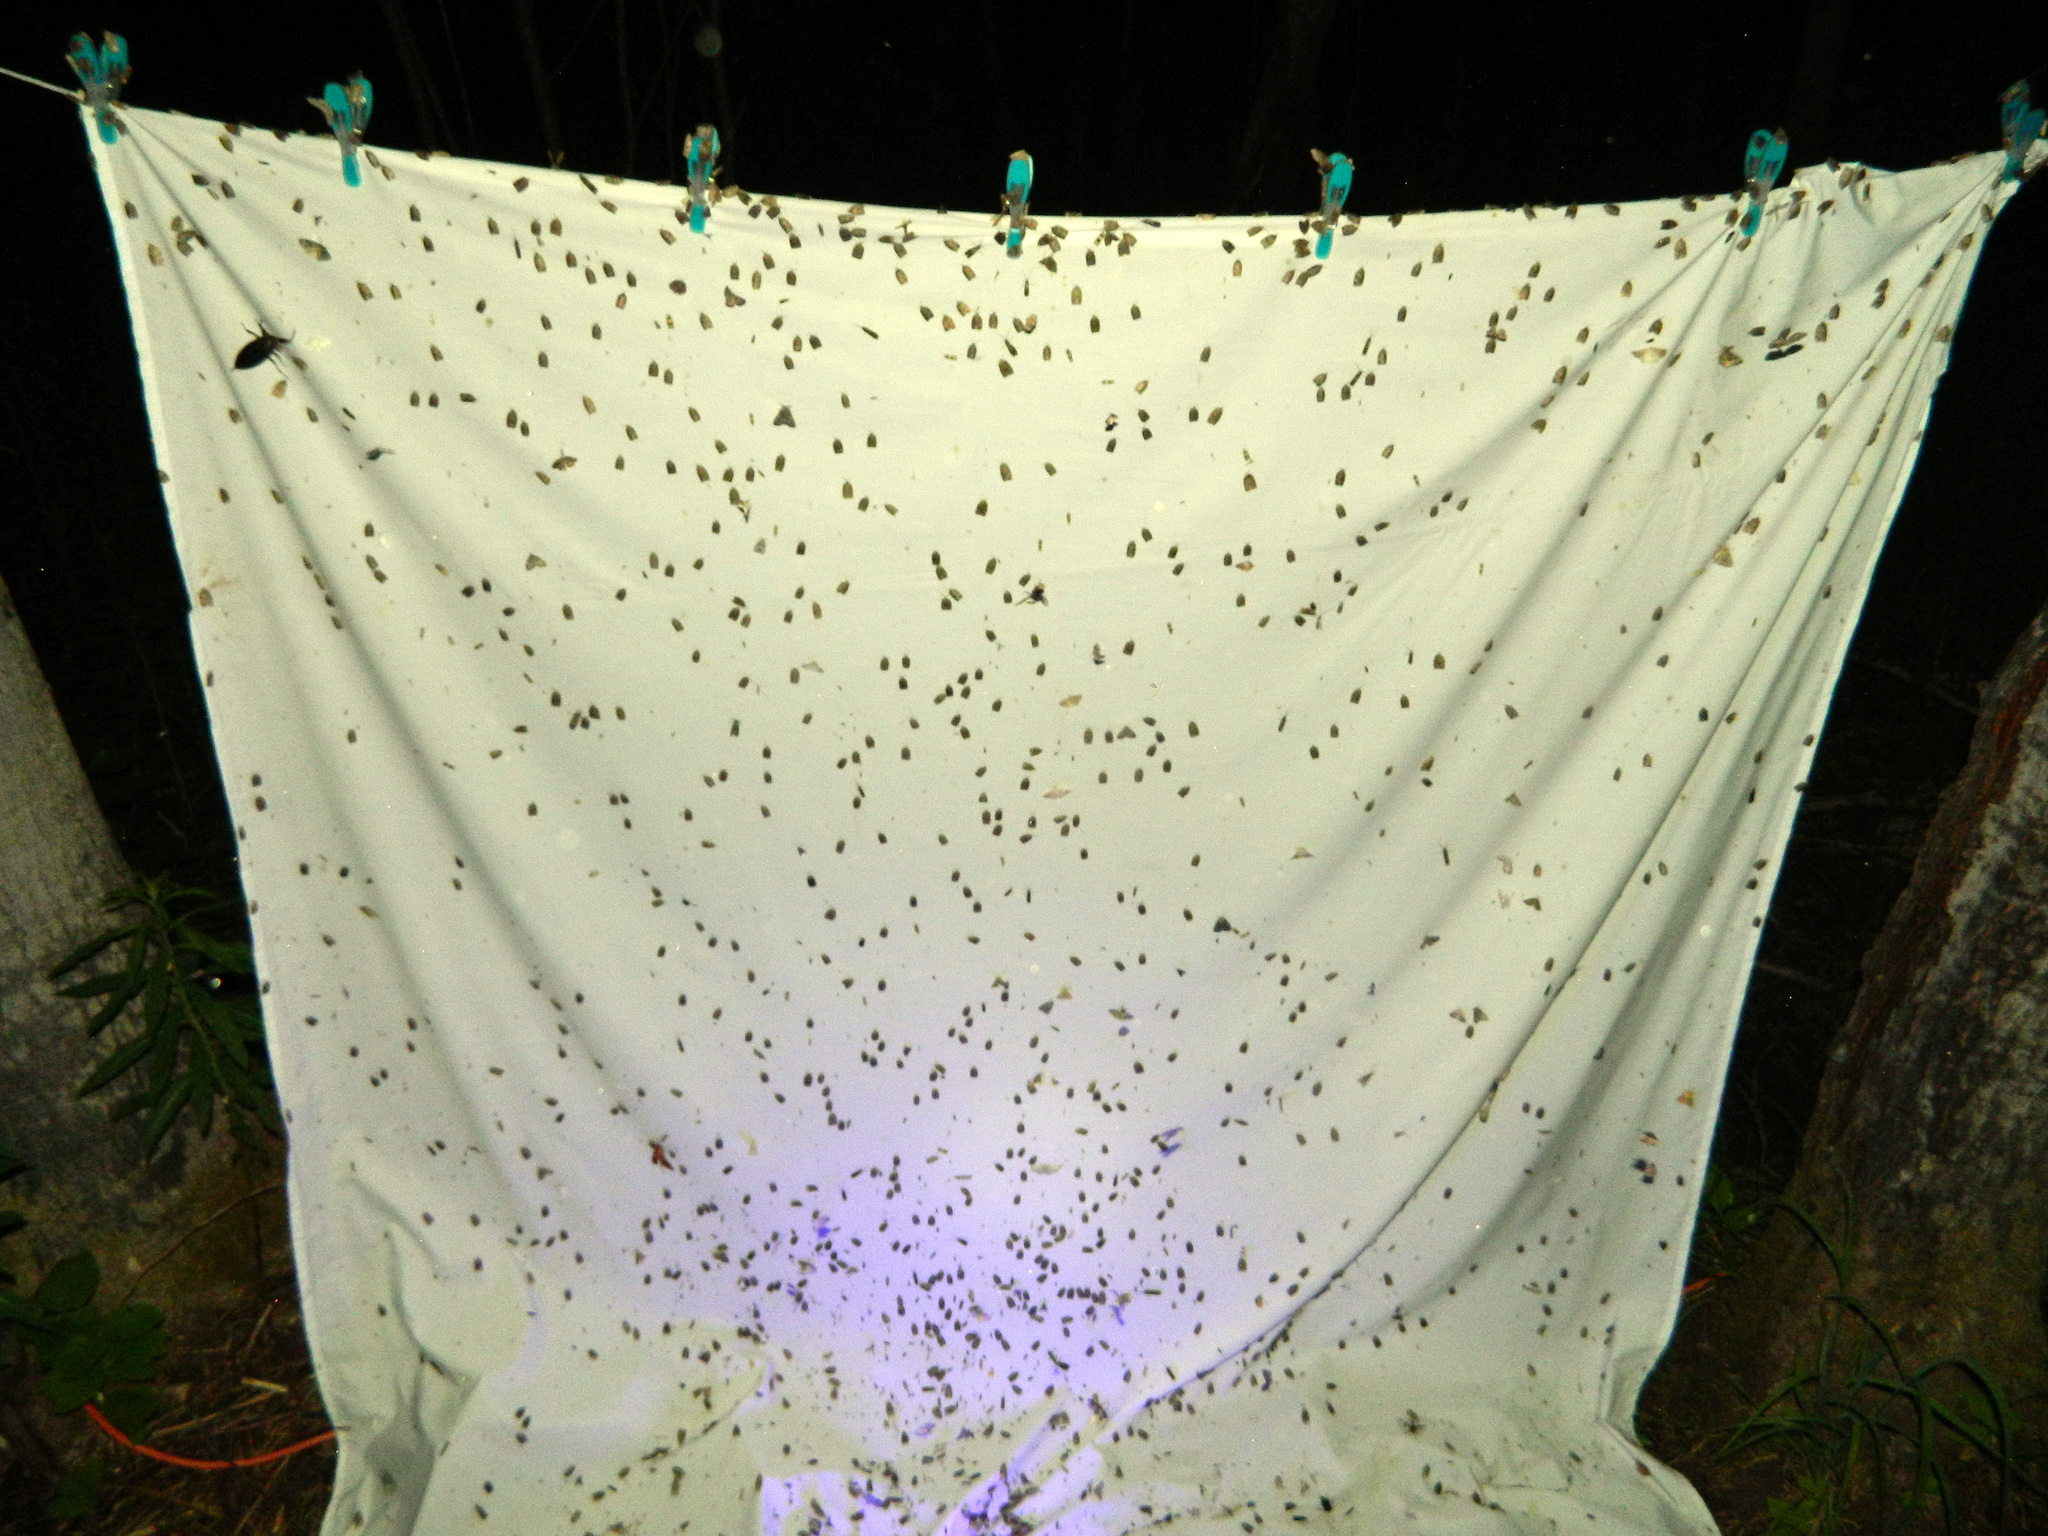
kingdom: Animalia
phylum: Arthropoda
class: Insecta
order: Lepidoptera
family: Tortricidae
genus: Choristoneura
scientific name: Choristoneura conflictana
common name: Large aspen tortrix
